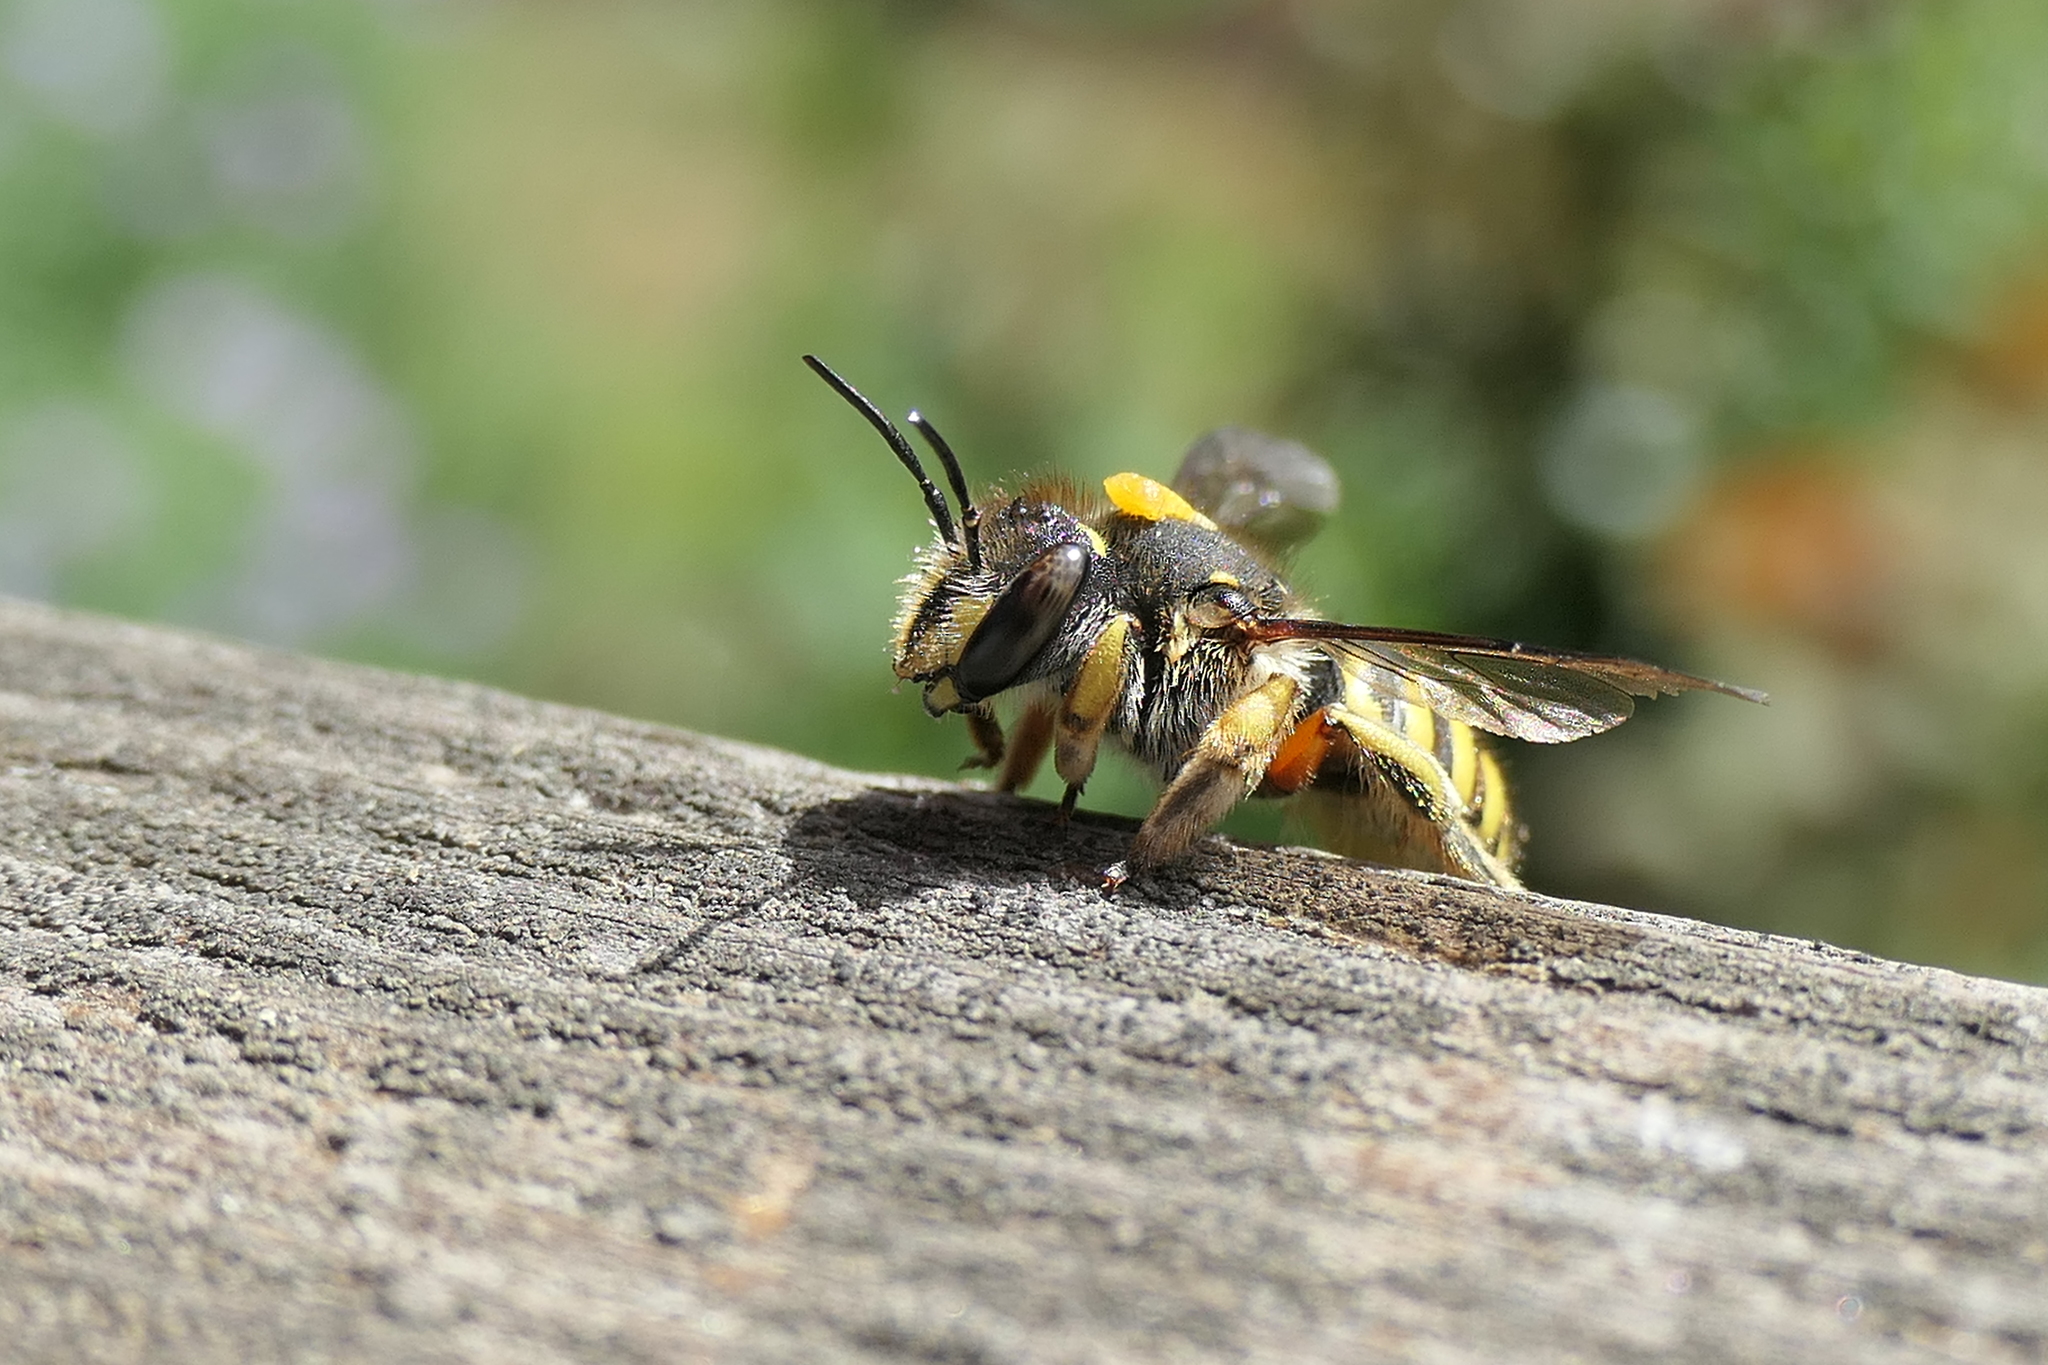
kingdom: Animalia
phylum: Arthropoda
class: Insecta
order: Hymenoptera
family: Megachilidae
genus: Anthidium
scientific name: Anthidium manicatum
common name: Wool carder bee
